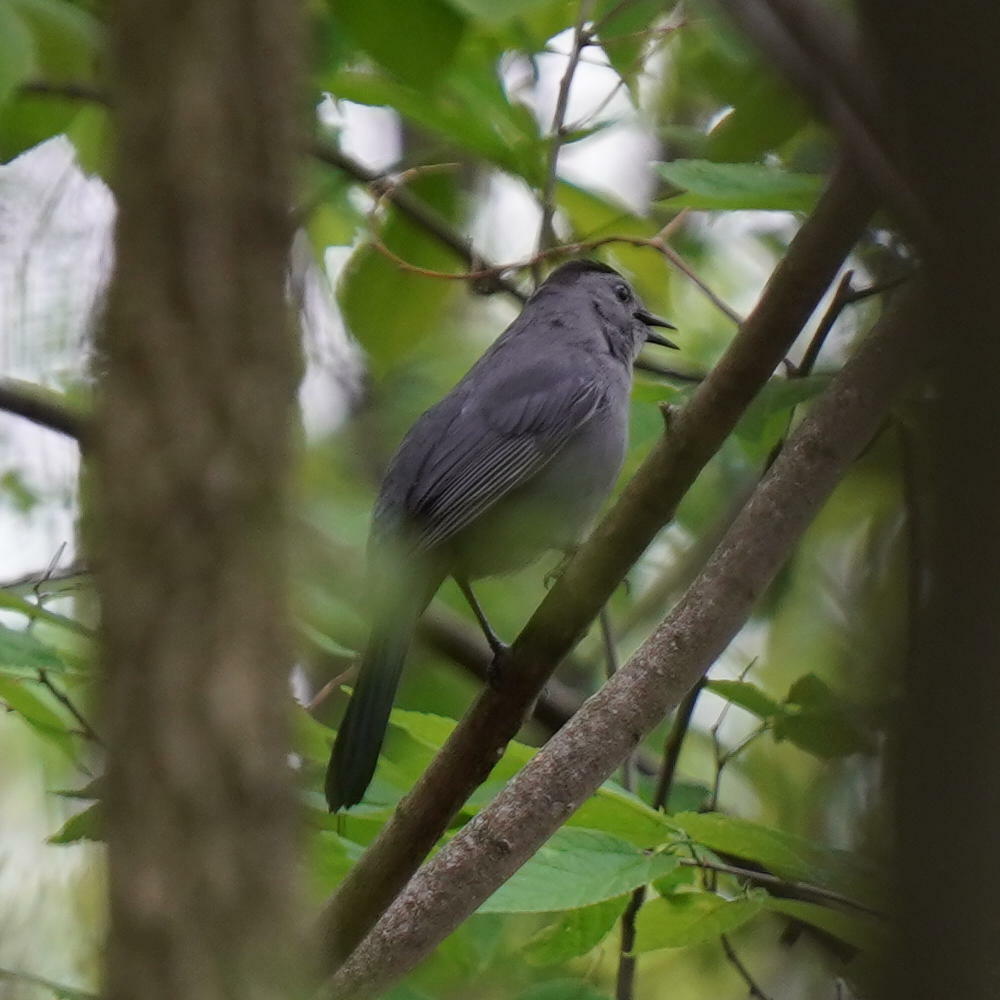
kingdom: Animalia
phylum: Chordata
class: Aves
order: Passeriformes
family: Mimidae
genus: Dumetella
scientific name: Dumetella carolinensis
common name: Gray catbird
